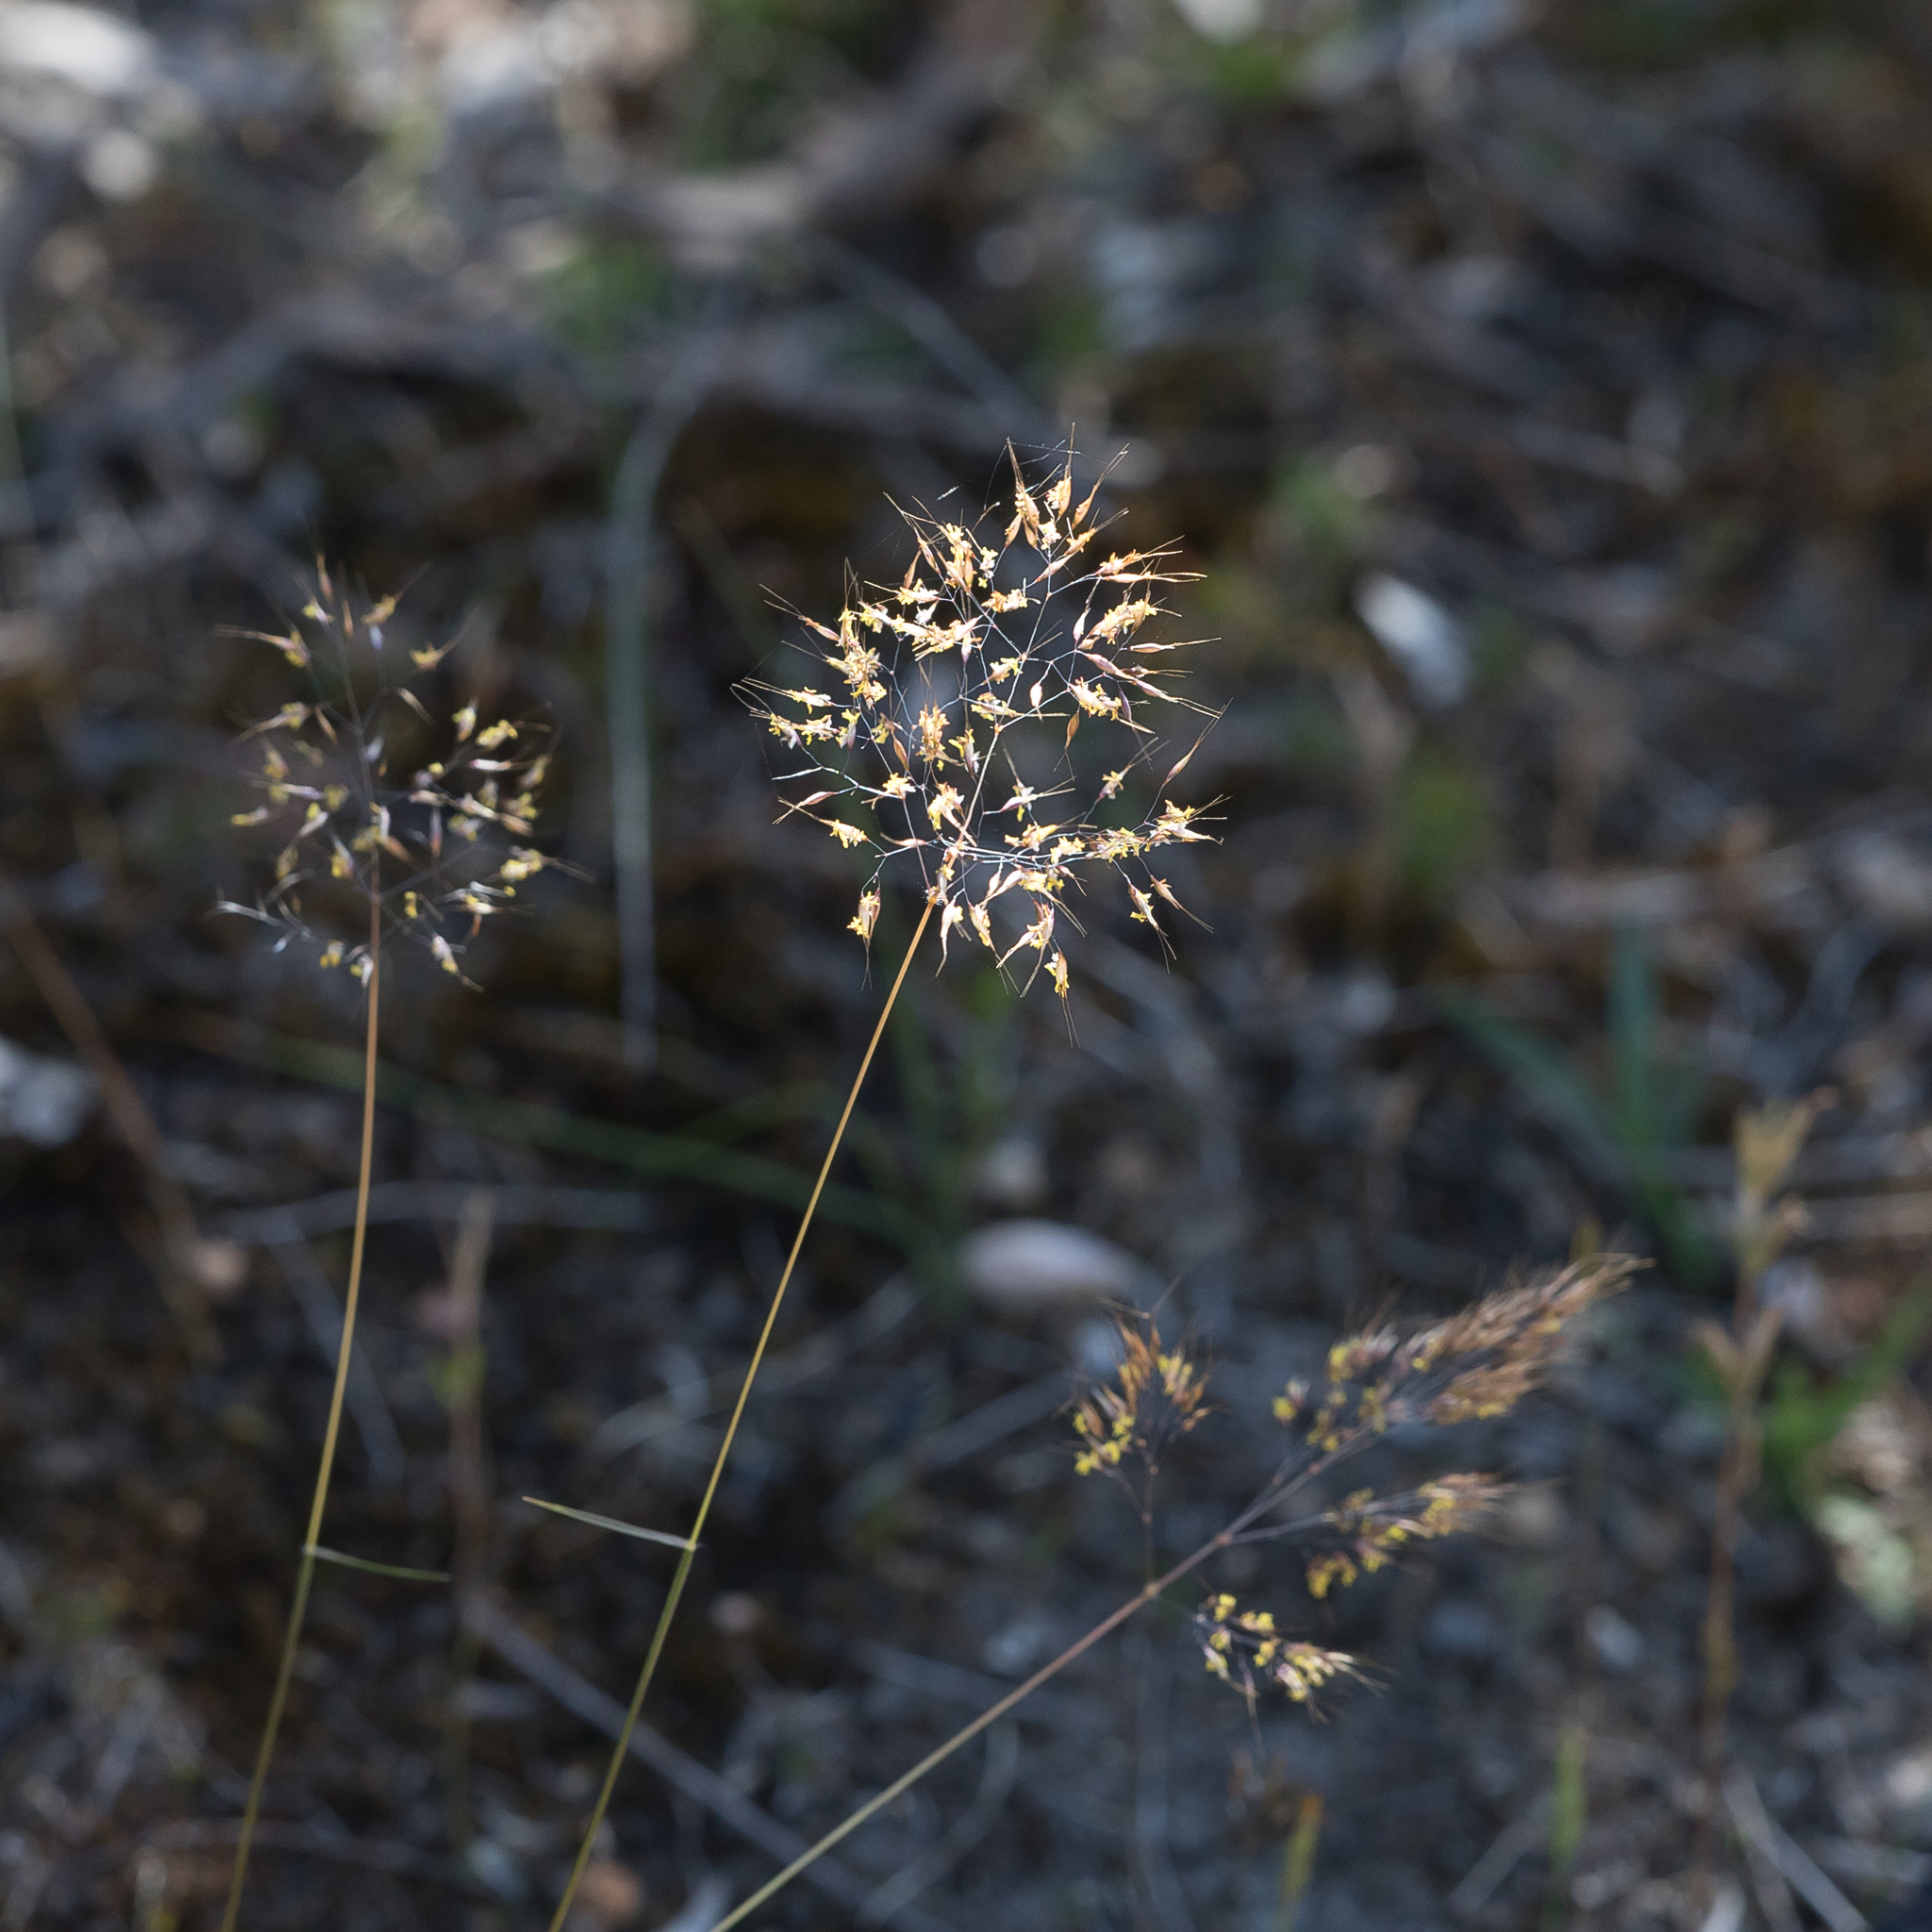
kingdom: Plantae
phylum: Tracheophyta
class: Liliopsida
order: Poales
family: Poaceae
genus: Pentameris
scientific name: Pentameris pallida
